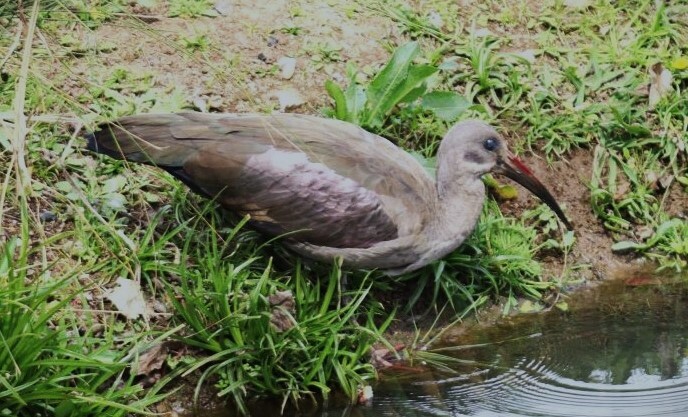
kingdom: Animalia
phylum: Chordata
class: Aves
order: Pelecaniformes
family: Threskiornithidae
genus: Bostrychia
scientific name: Bostrychia hagedash
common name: Hadada ibis
